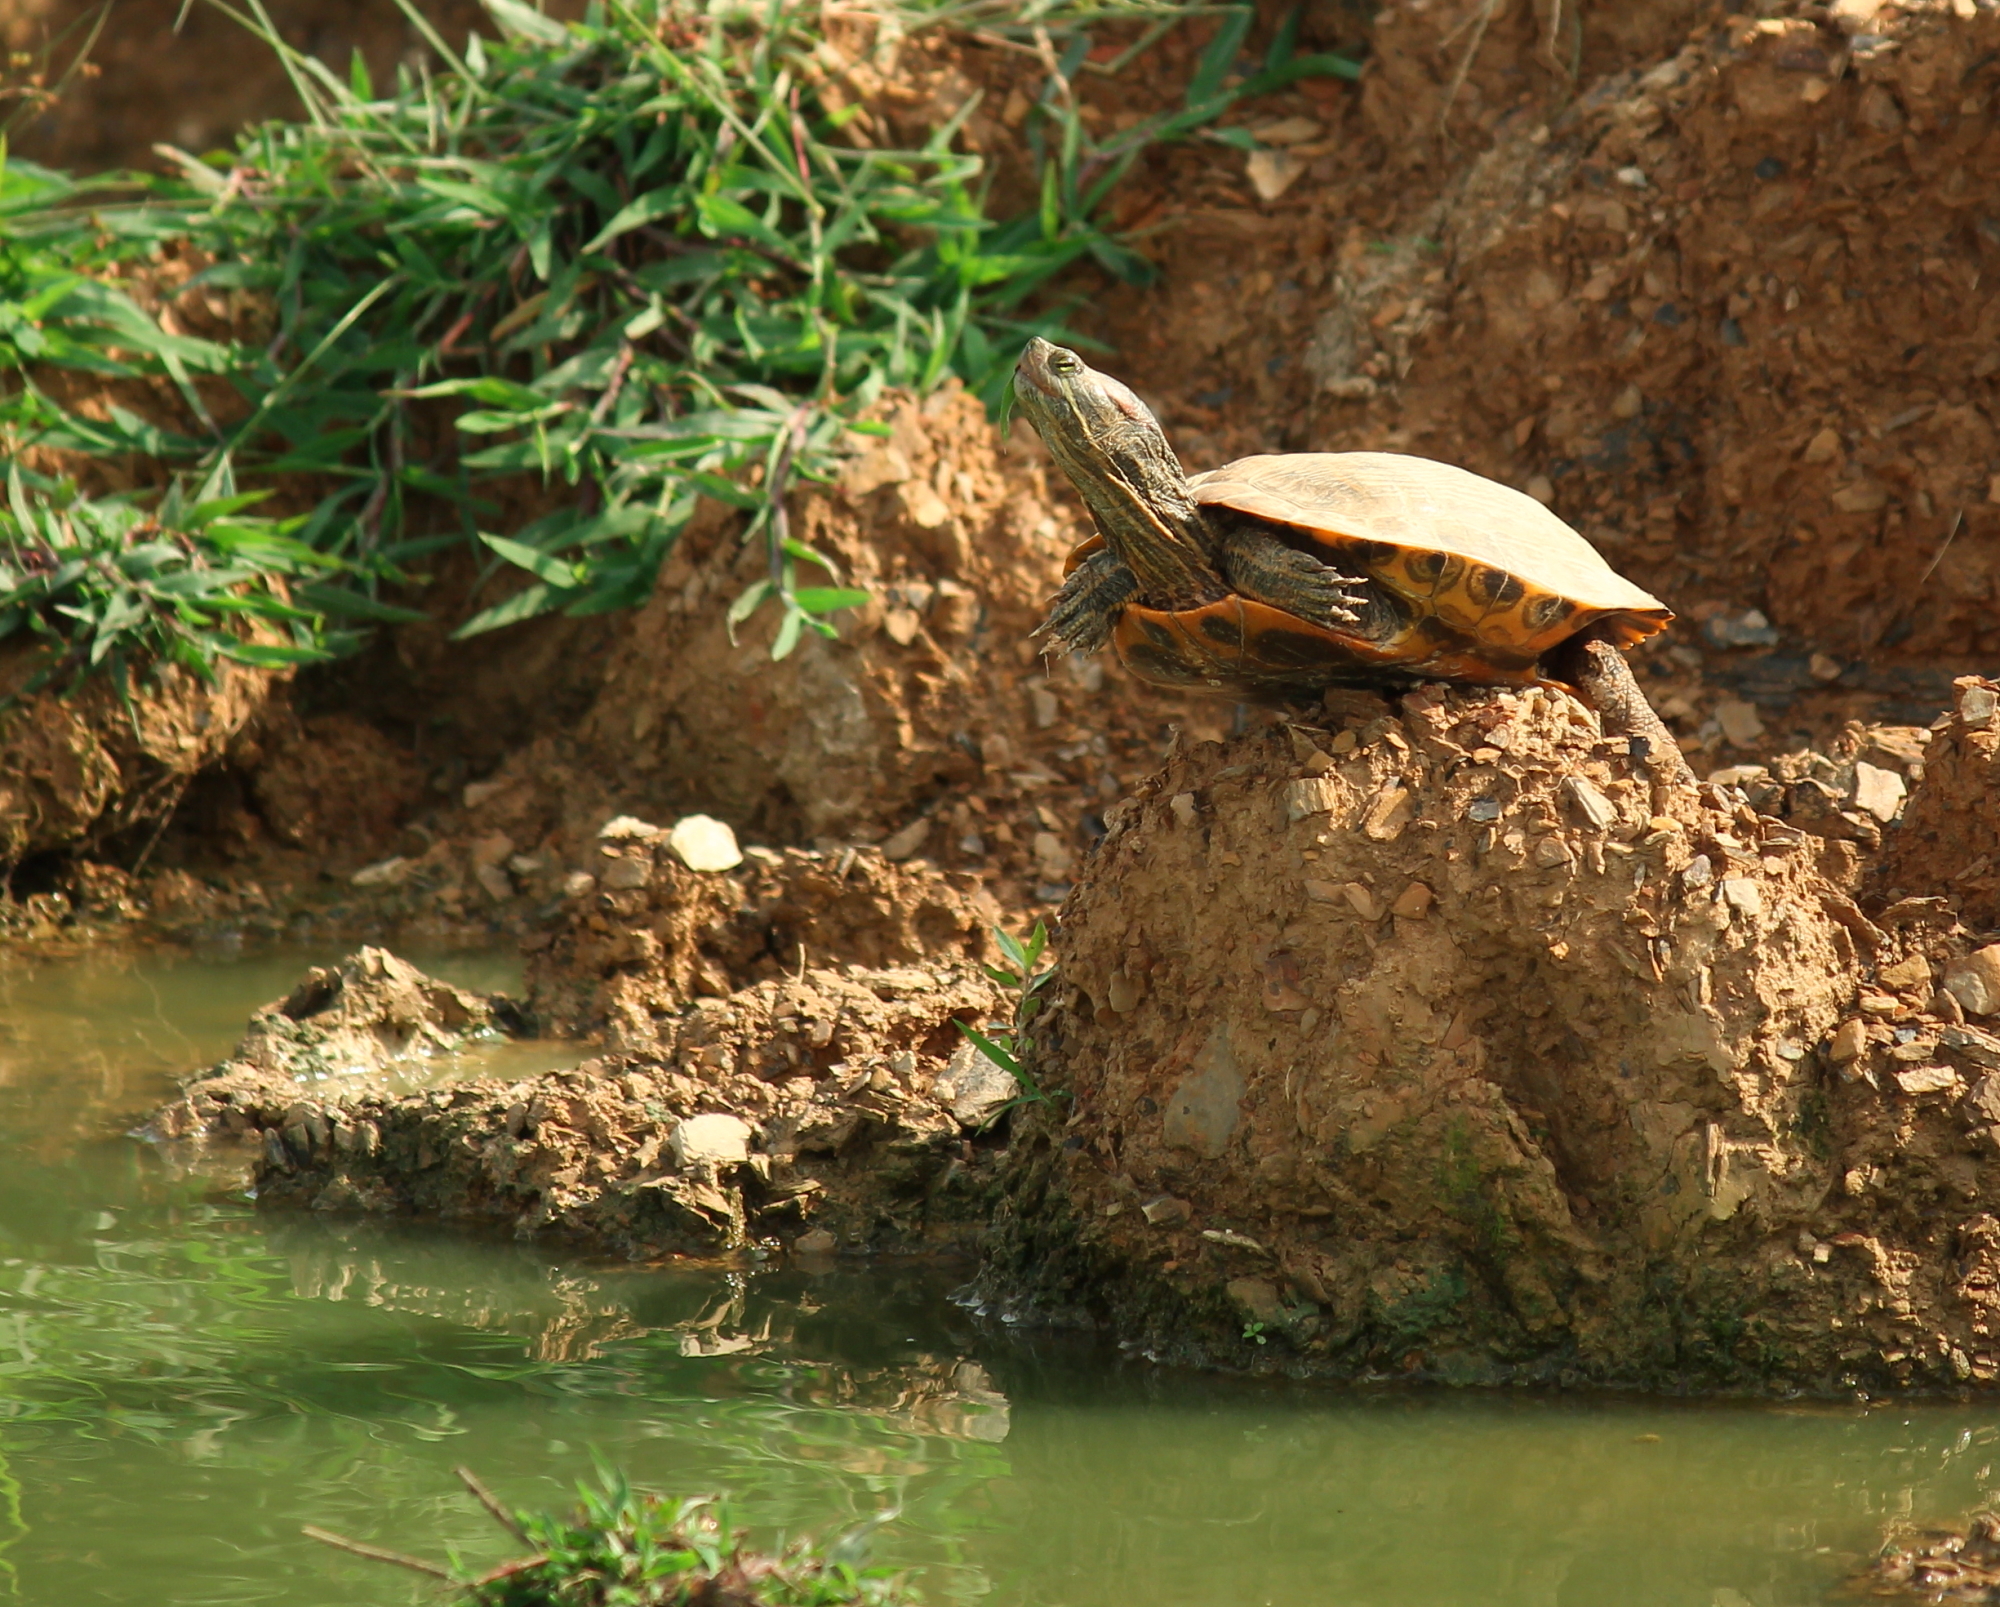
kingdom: Animalia
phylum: Chordata
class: Testudines
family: Emydidae
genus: Trachemys
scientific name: Trachemys scripta
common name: Slider
